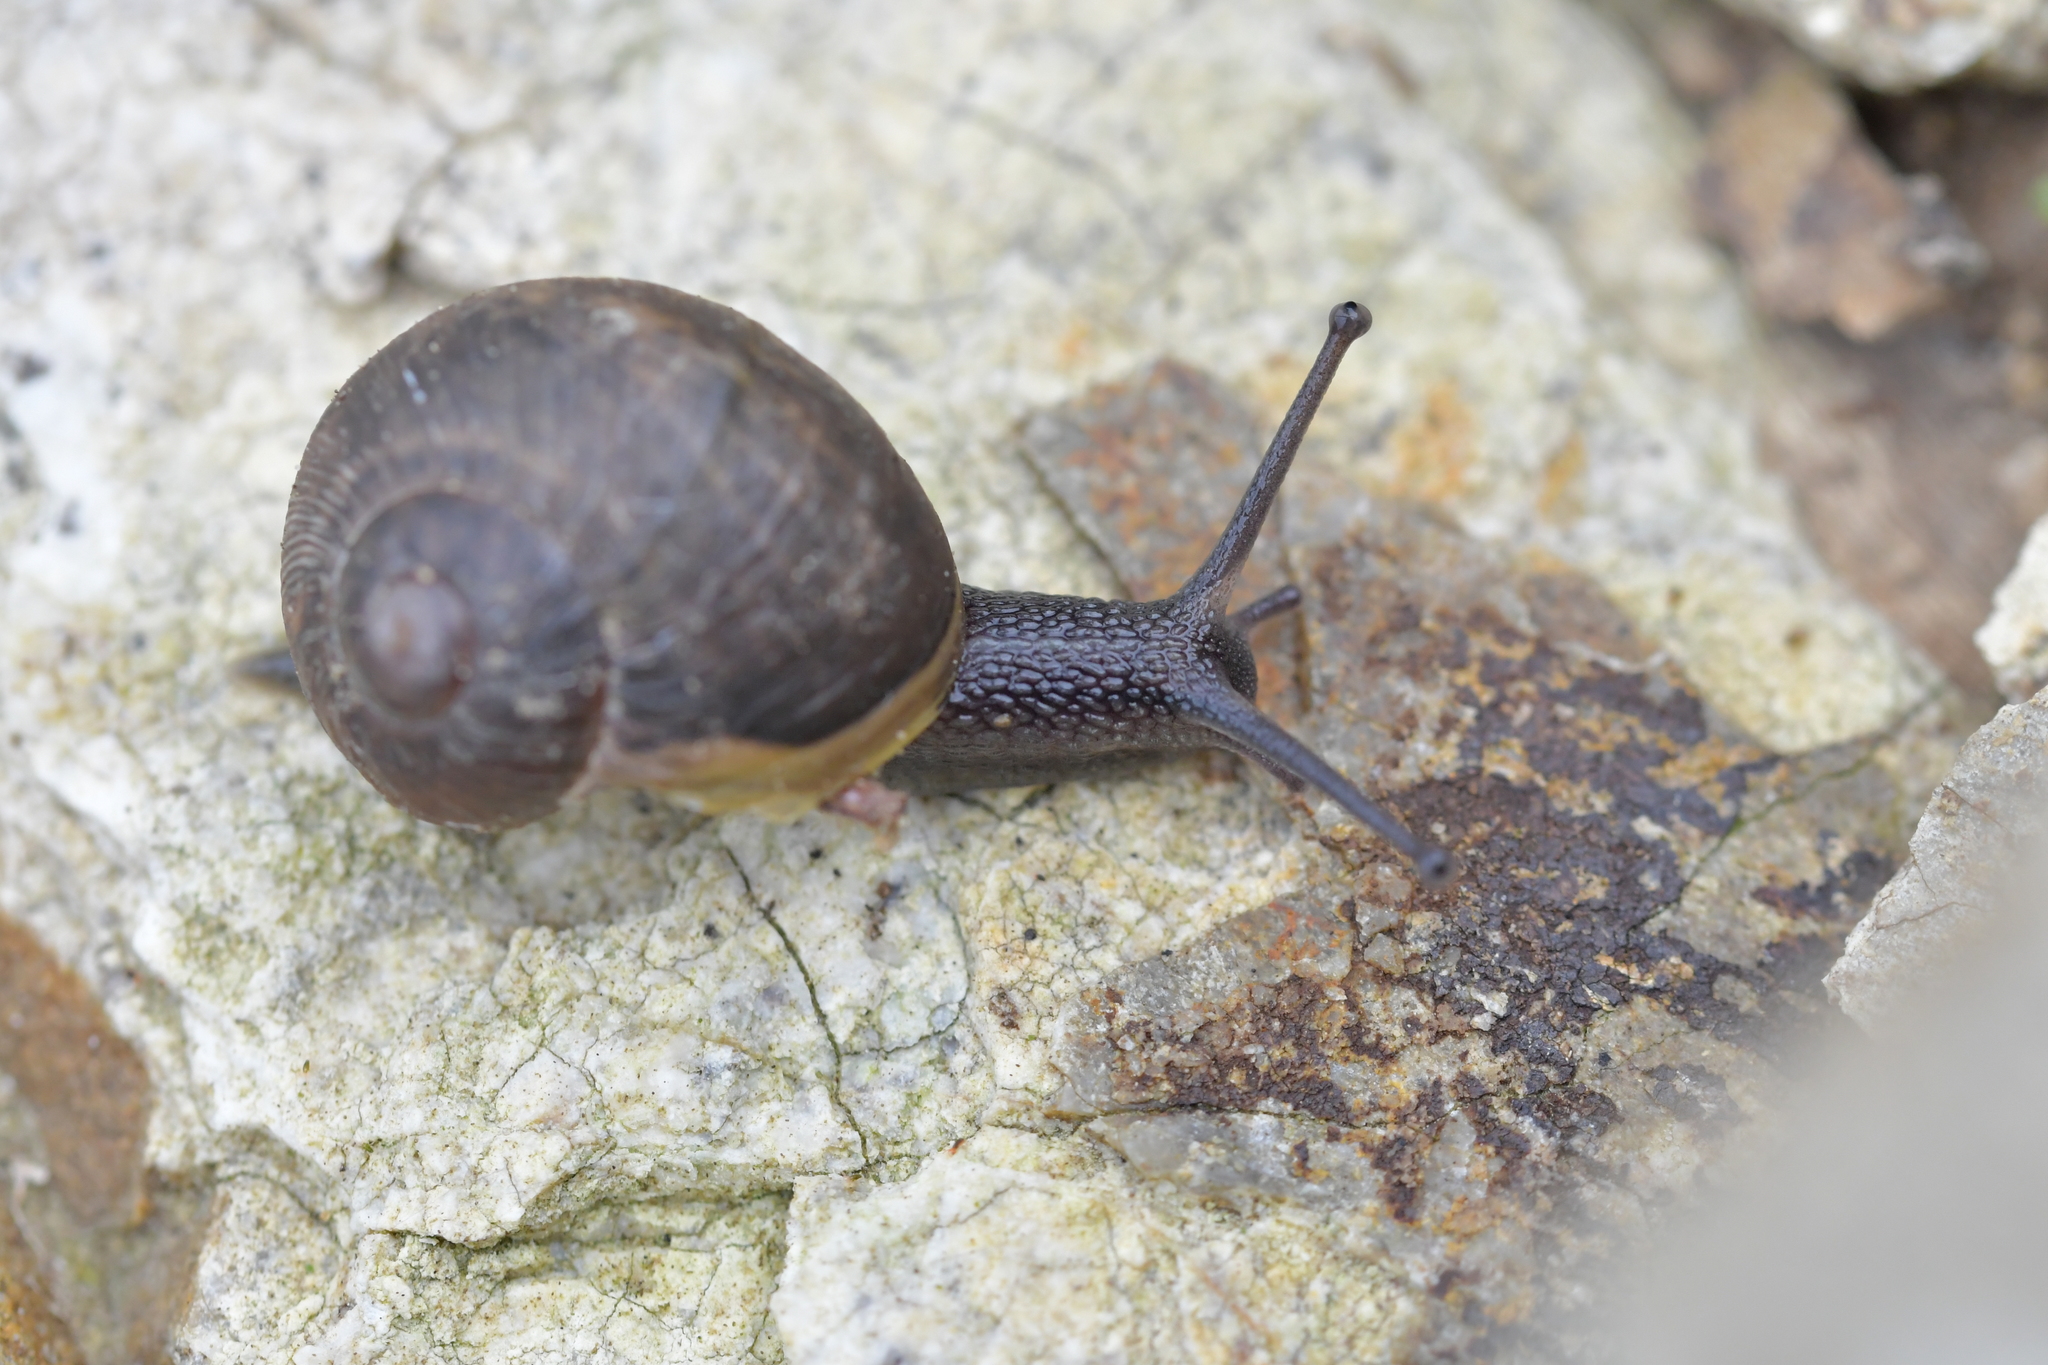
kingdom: Animalia
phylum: Mollusca
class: Gastropoda
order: Stylommatophora
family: Helicidae
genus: Cornu
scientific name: Cornu aspersum
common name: Brown garden snail
